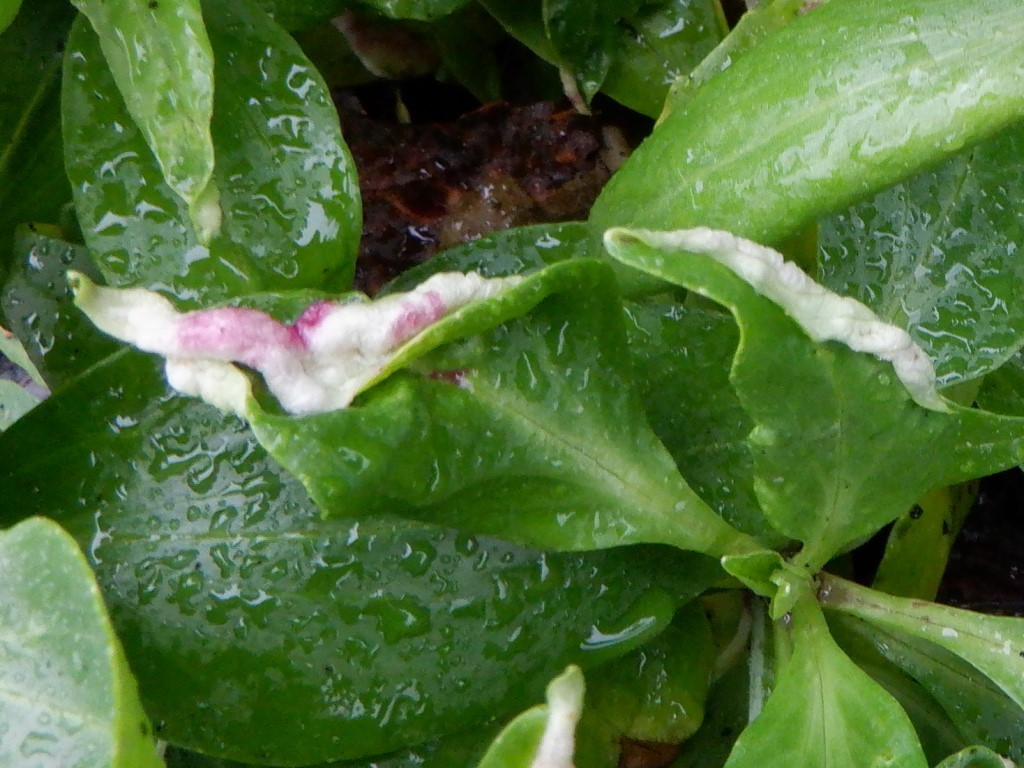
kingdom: Animalia
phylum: Arthropoda
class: Insecta
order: Hemiptera
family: Triozidae
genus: Trioza
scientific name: Trioza centranthi
